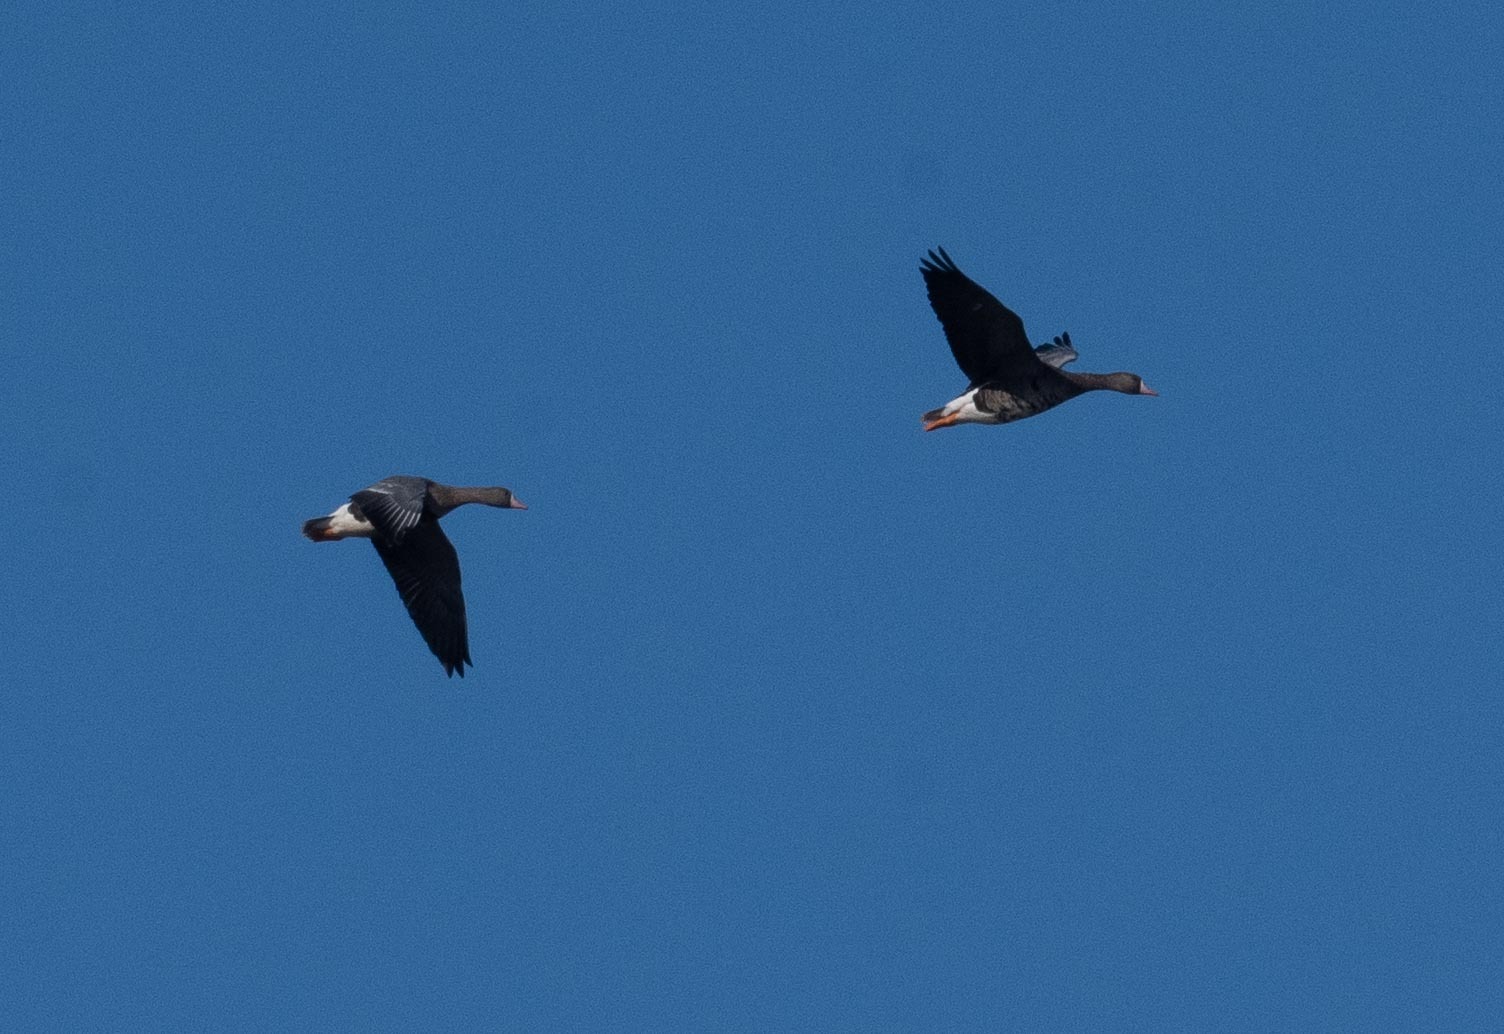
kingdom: Animalia
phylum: Chordata
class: Aves
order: Anseriformes
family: Anatidae
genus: Anser
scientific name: Anser albifrons
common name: Greater white-fronted goose
